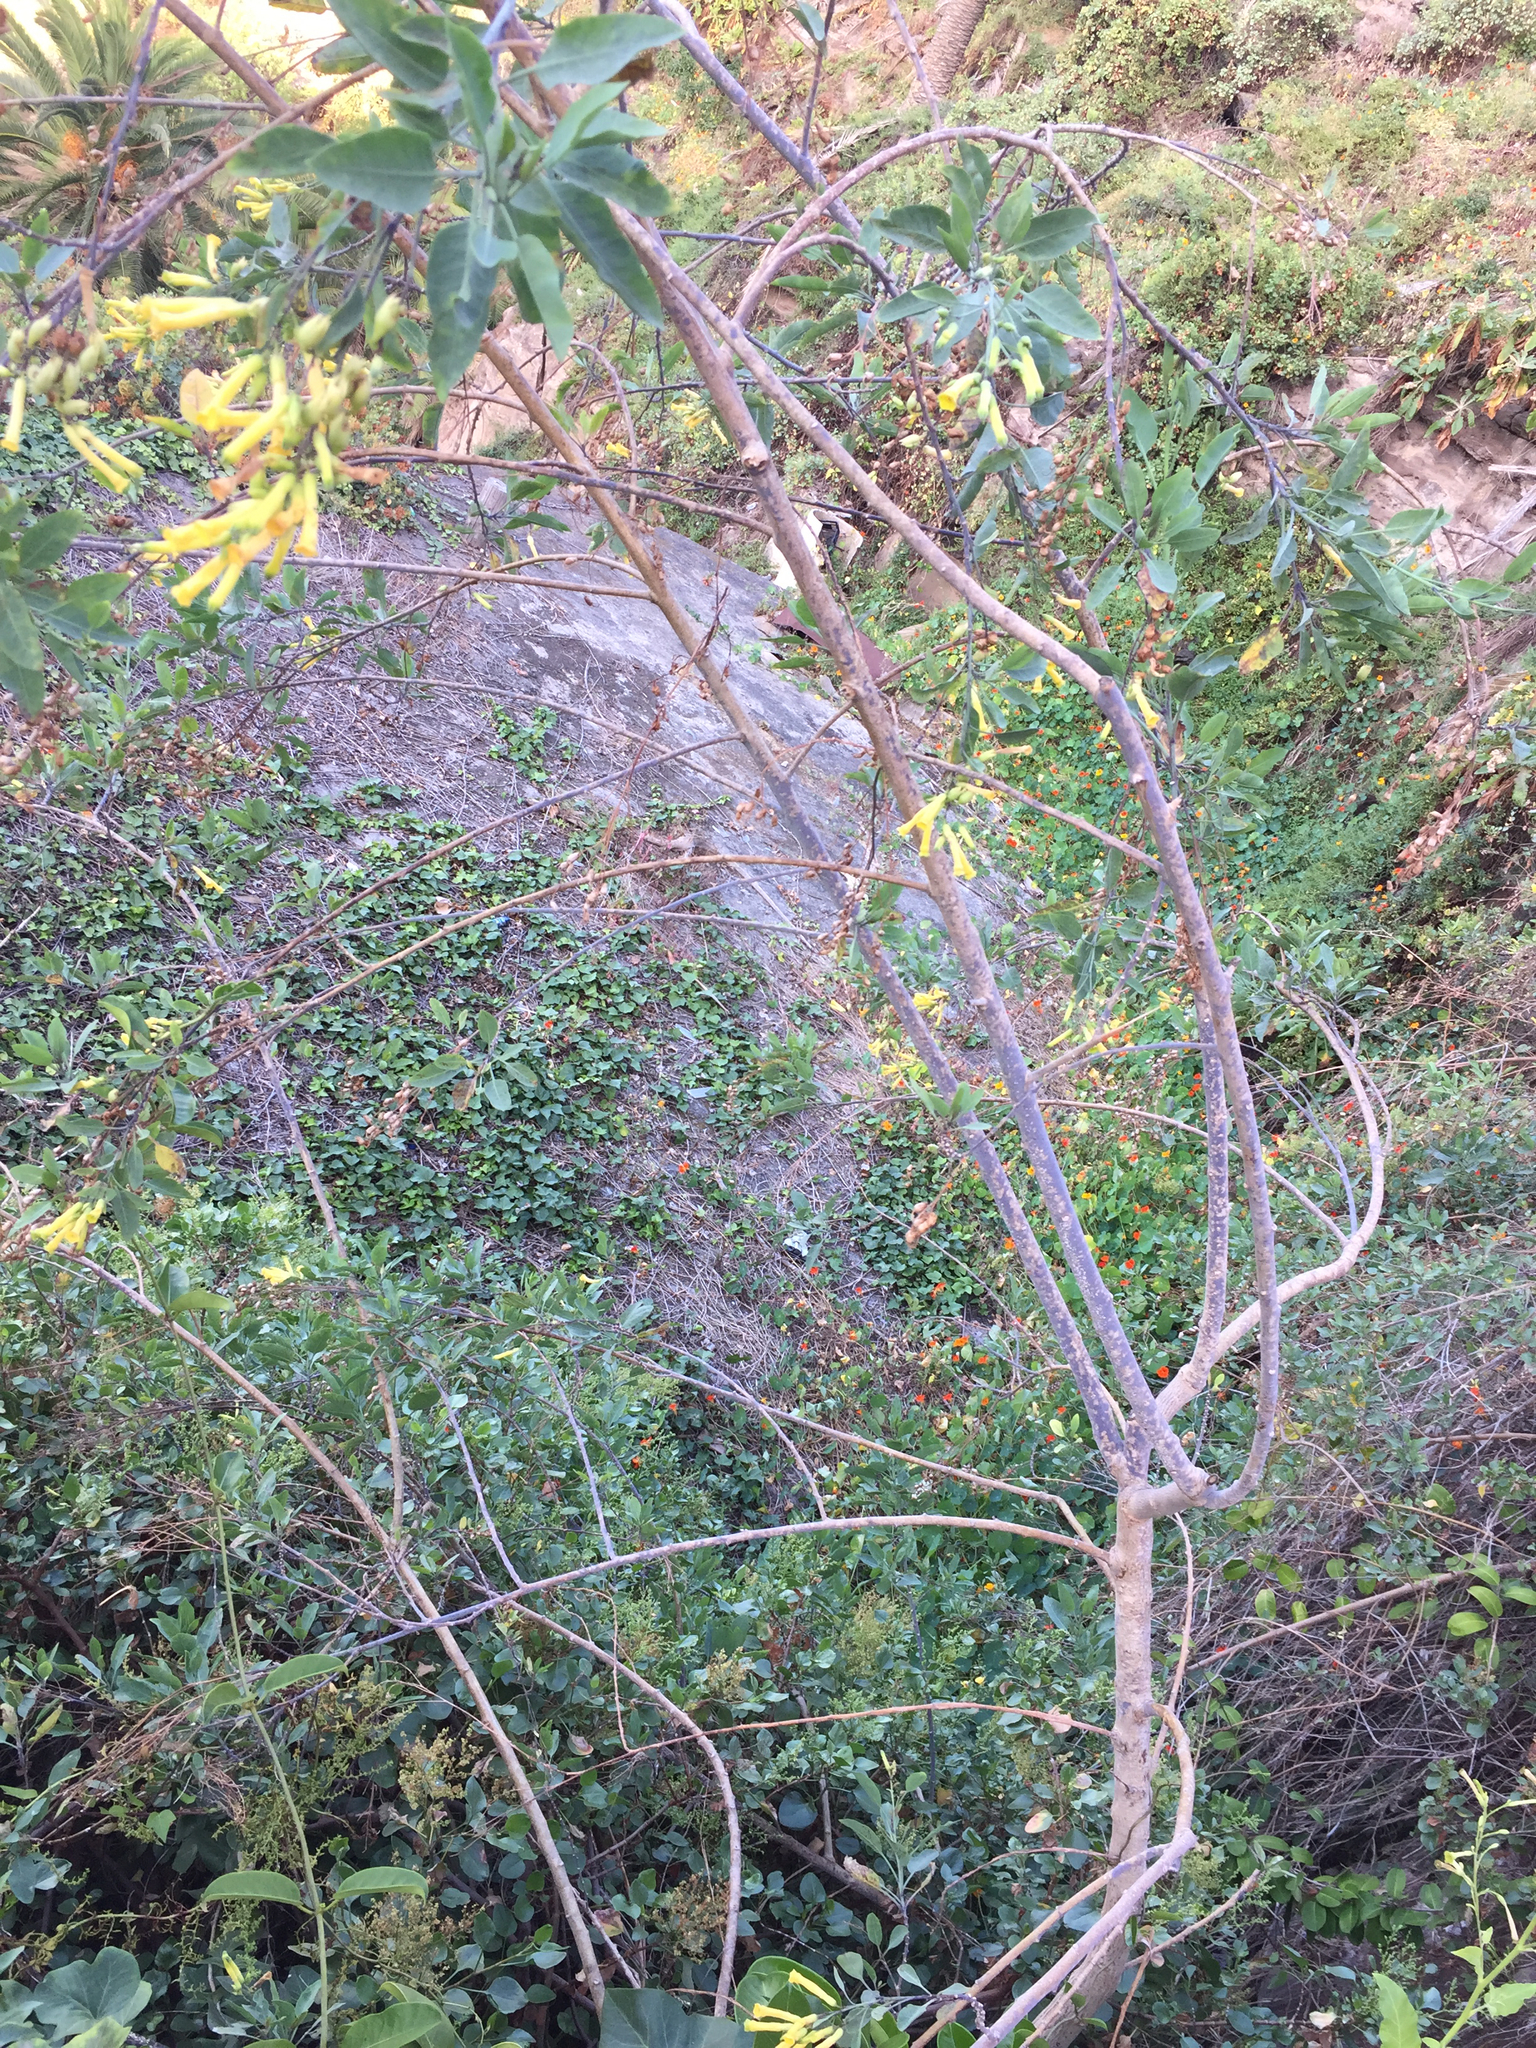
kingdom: Plantae
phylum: Tracheophyta
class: Magnoliopsida
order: Solanales
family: Solanaceae
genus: Nicotiana
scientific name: Nicotiana glauca
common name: Tree tobacco
